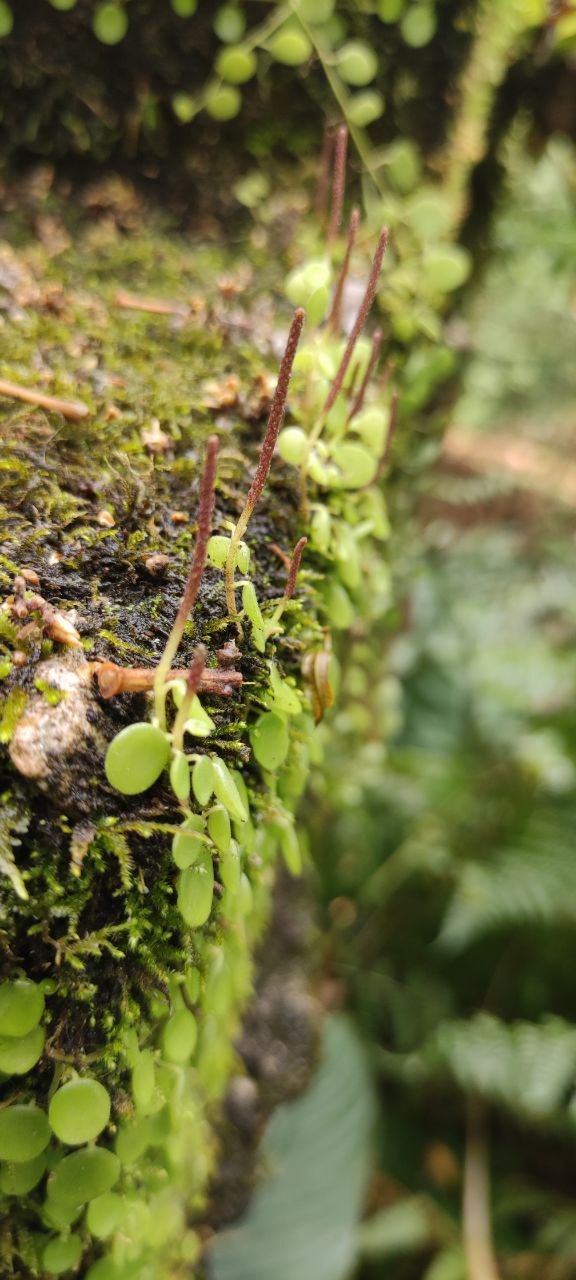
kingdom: Plantae
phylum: Tracheophyta
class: Magnoliopsida
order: Piperales
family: Piperaceae
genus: Peperomia
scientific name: Peperomia rotundifolia
